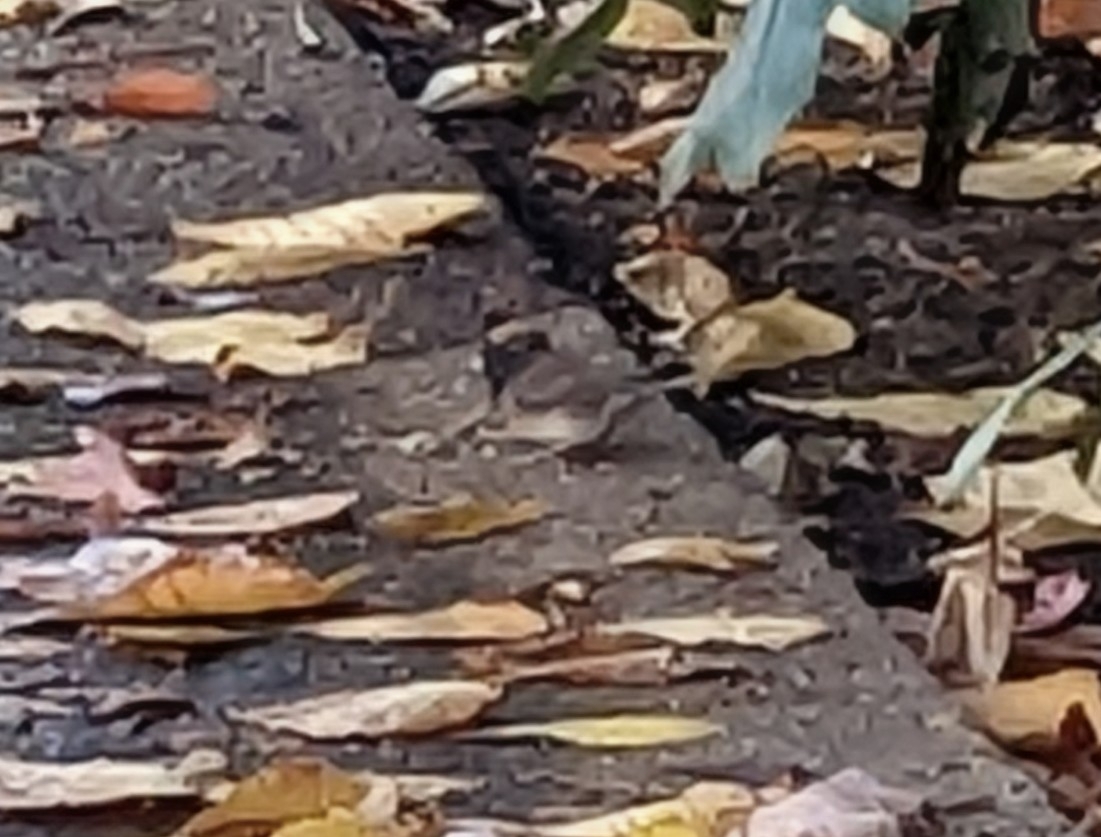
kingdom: Animalia
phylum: Chordata
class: Aves
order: Passeriformes
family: Passerellidae
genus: Junco
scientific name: Junco hyemalis
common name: Dark-eyed junco
